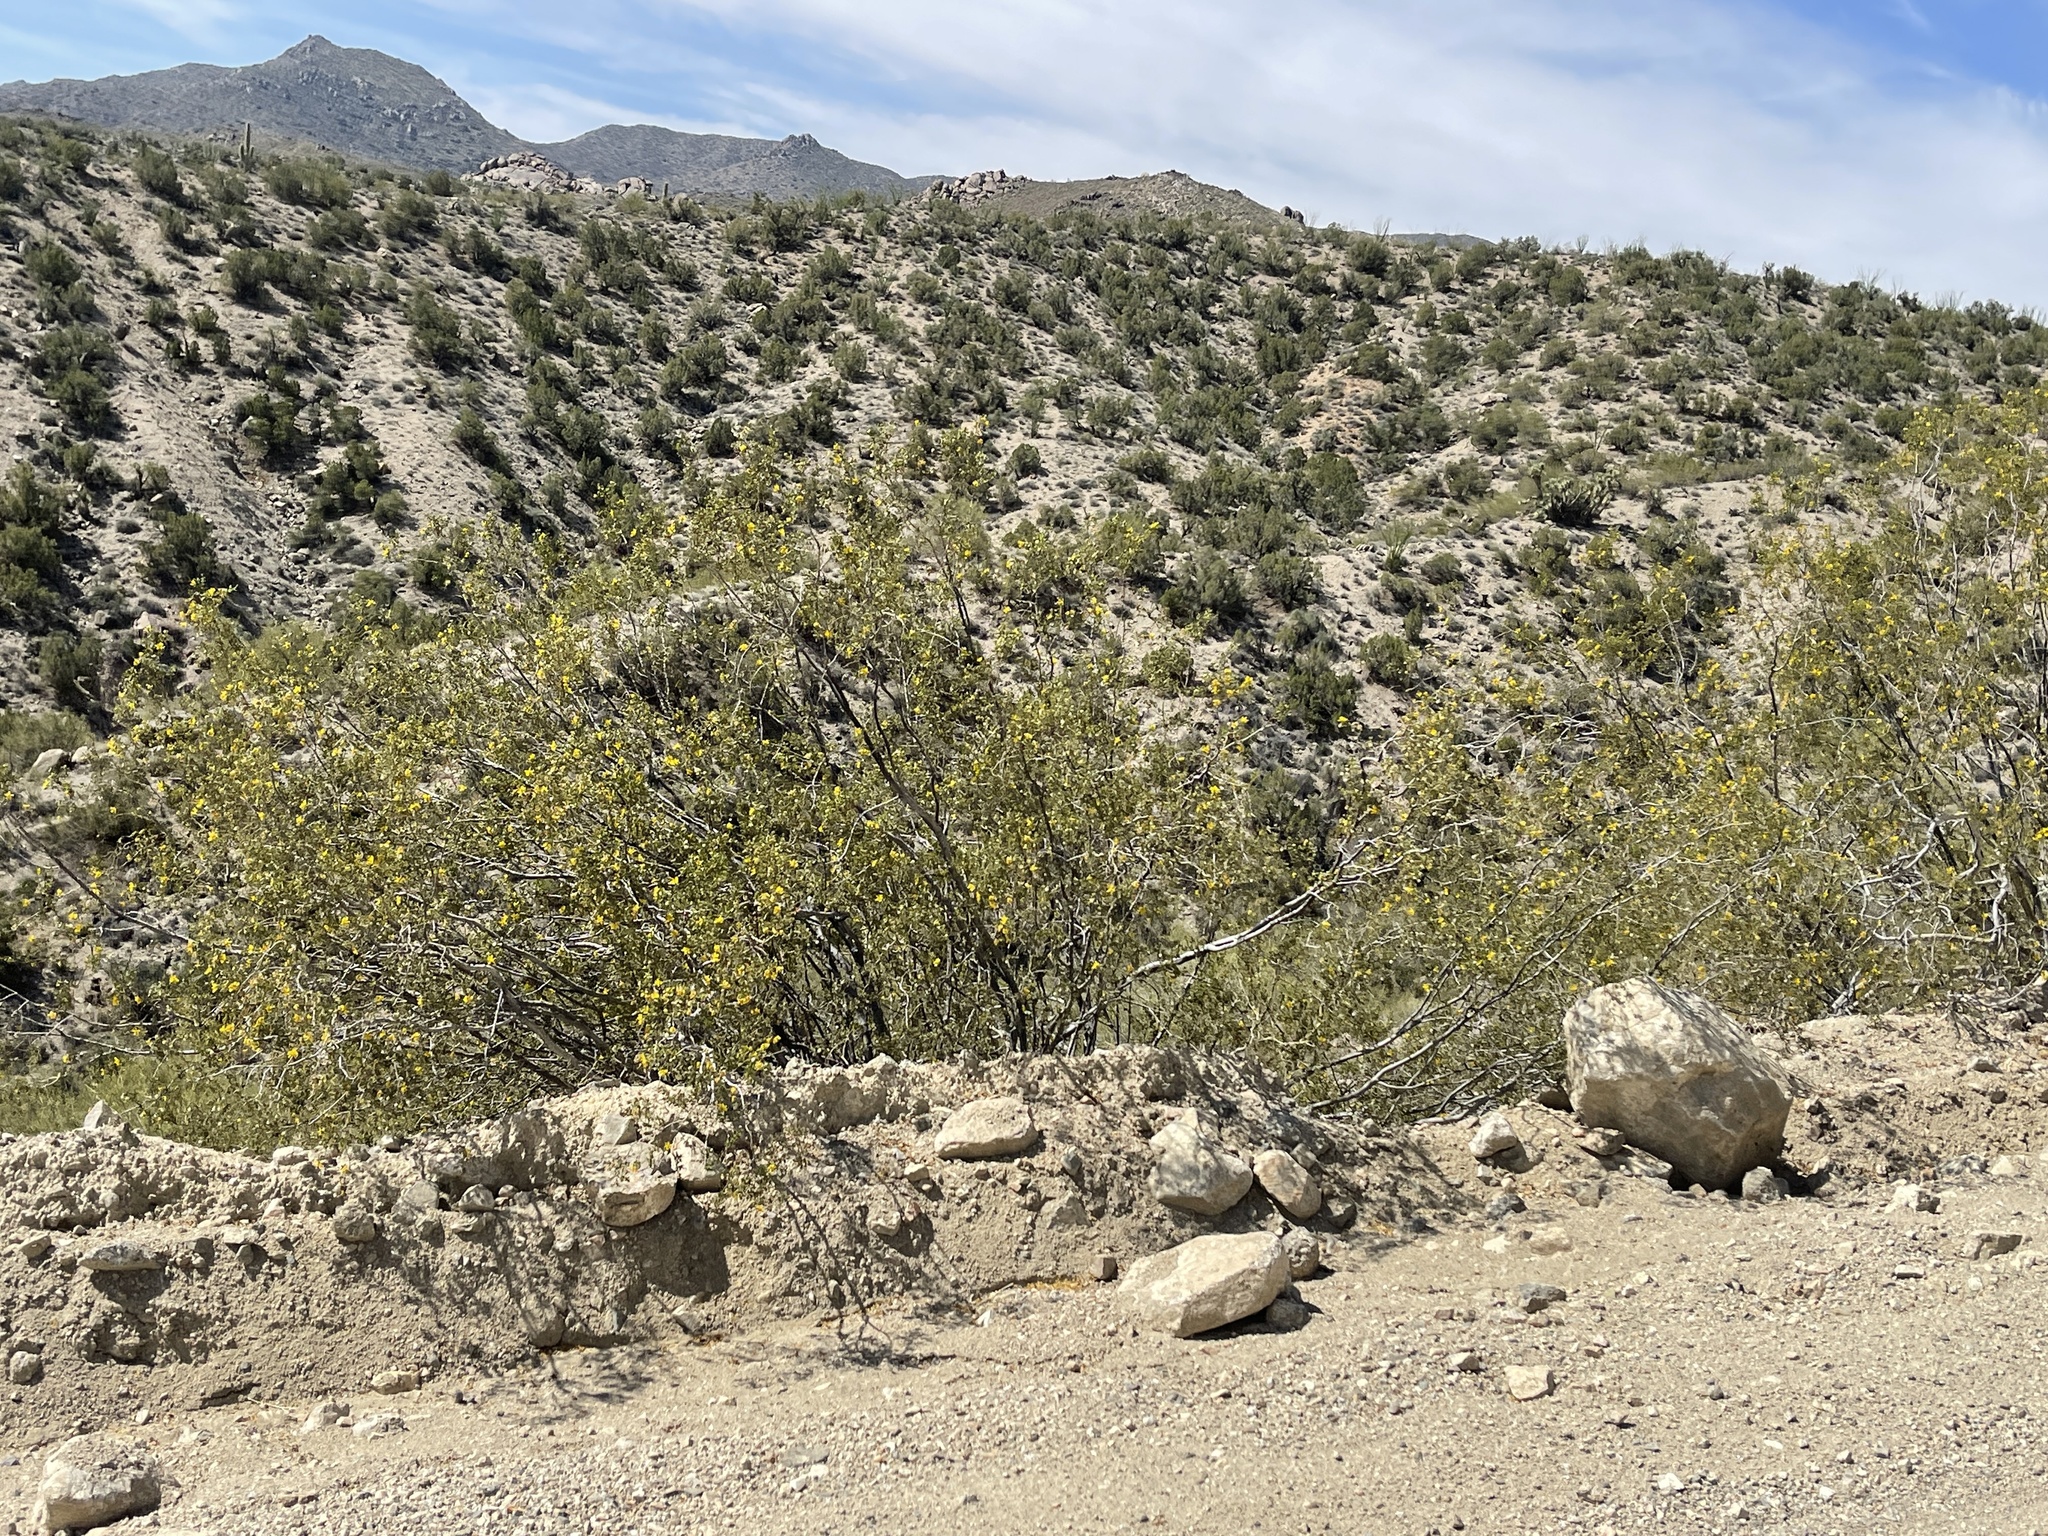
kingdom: Plantae
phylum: Tracheophyta
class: Magnoliopsida
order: Zygophyllales
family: Zygophyllaceae
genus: Larrea
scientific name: Larrea tridentata
